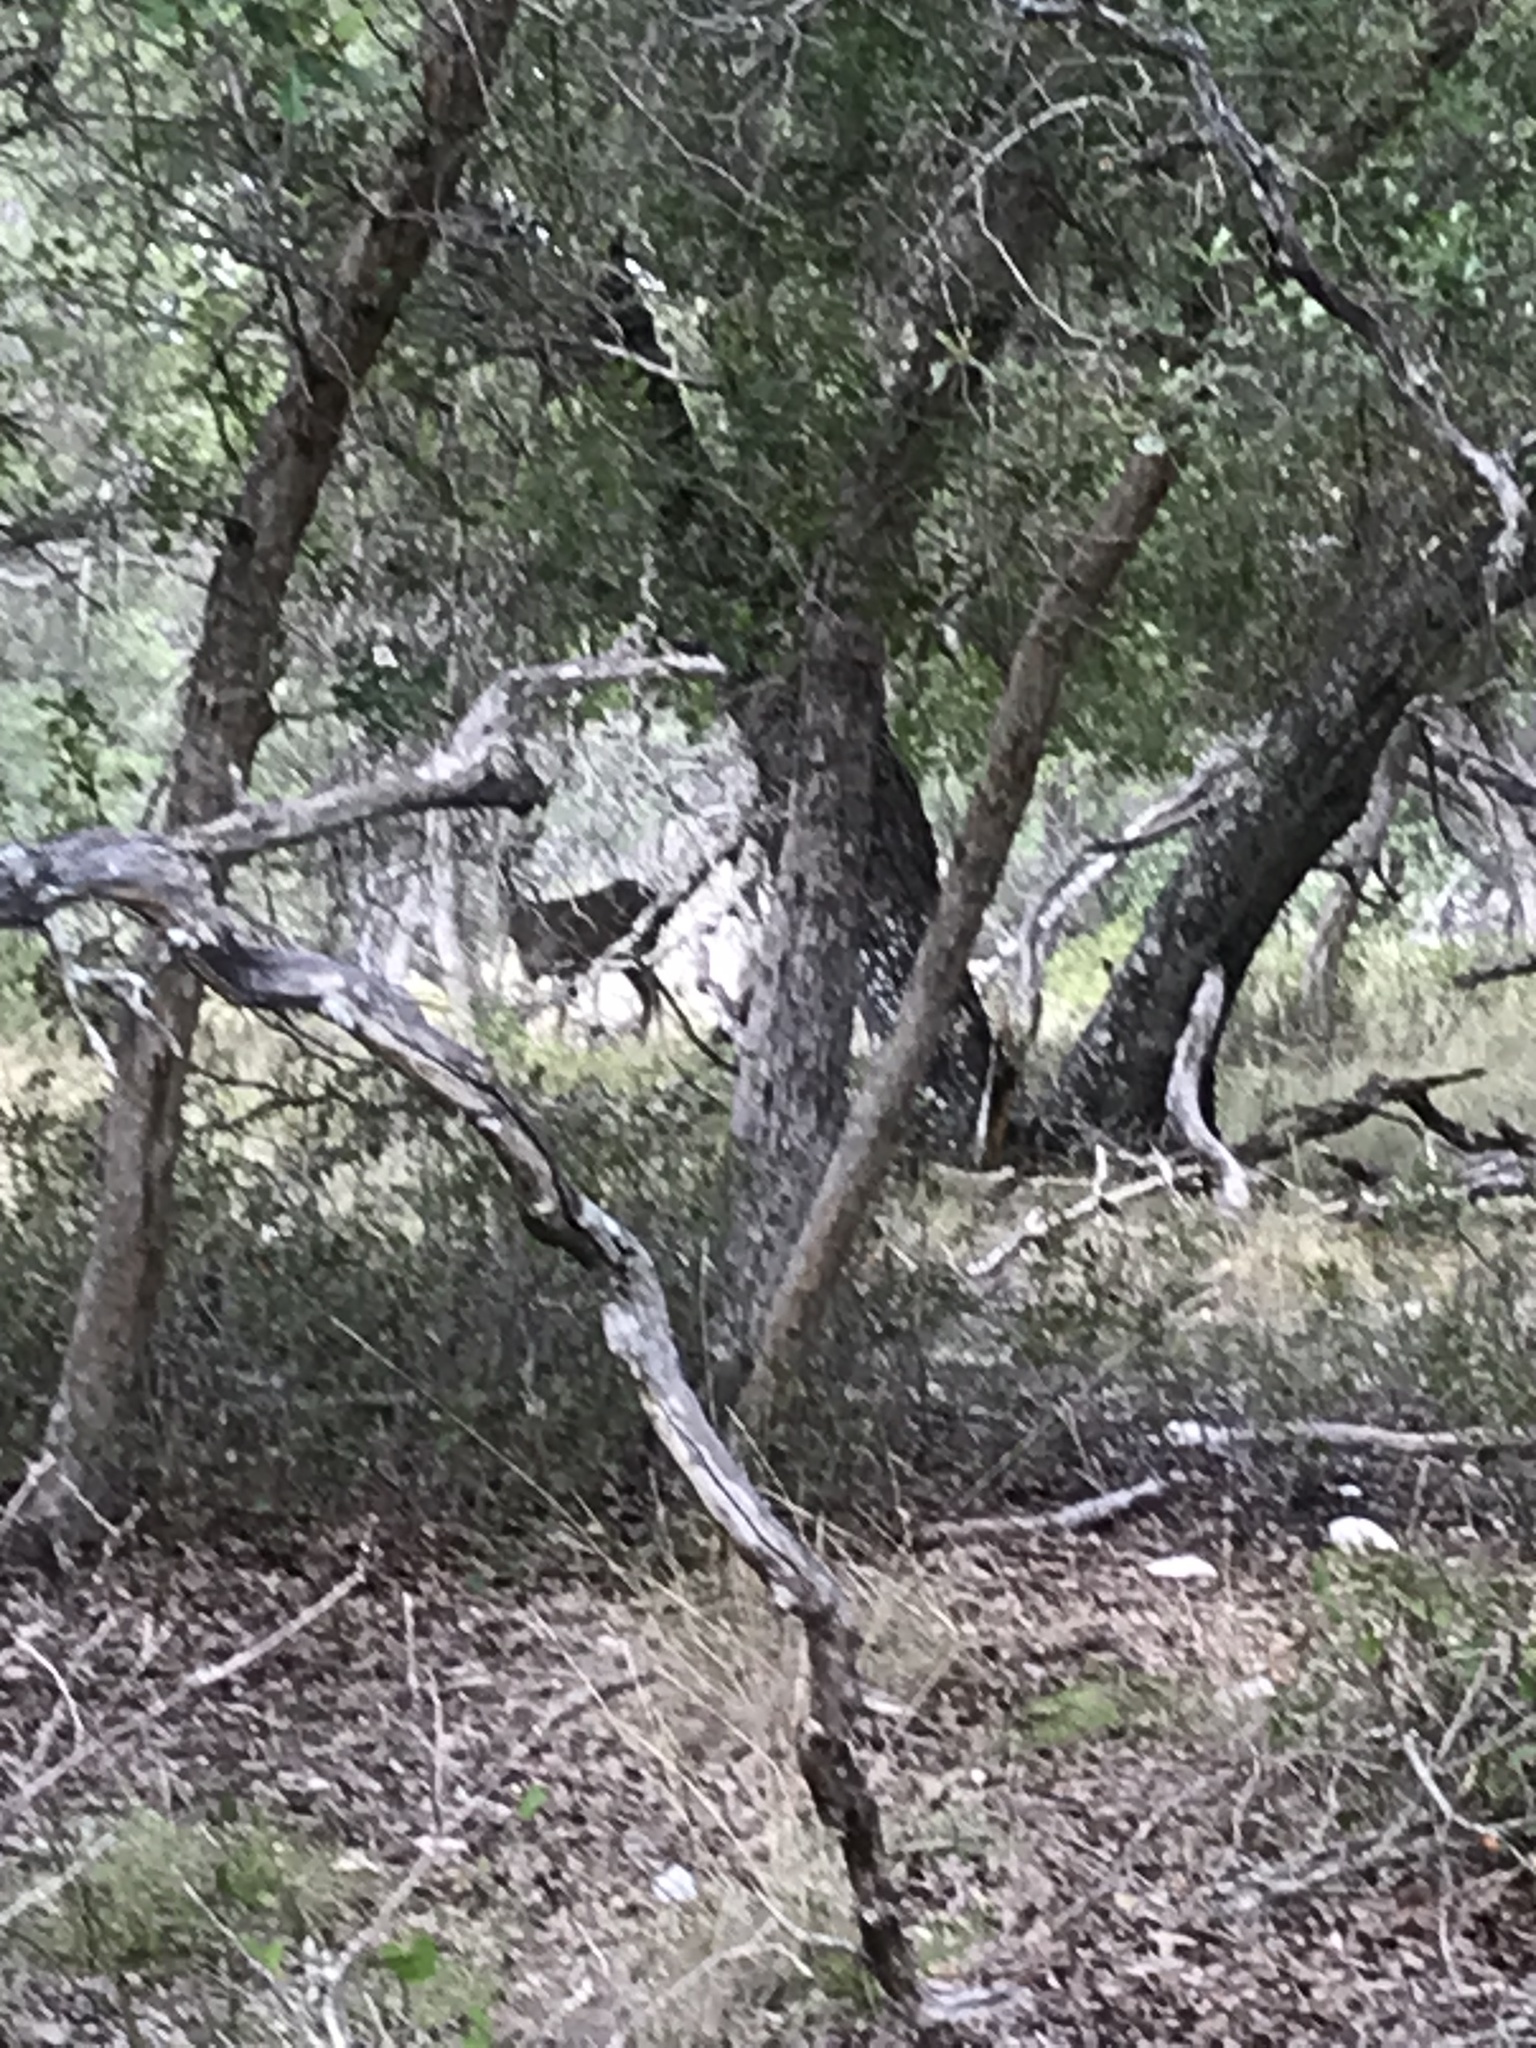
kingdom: Animalia
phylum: Chordata
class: Mammalia
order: Artiodactyla
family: Cervidae
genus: Odocoileus
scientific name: Odocoileus virginianus
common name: White-tailed deer
